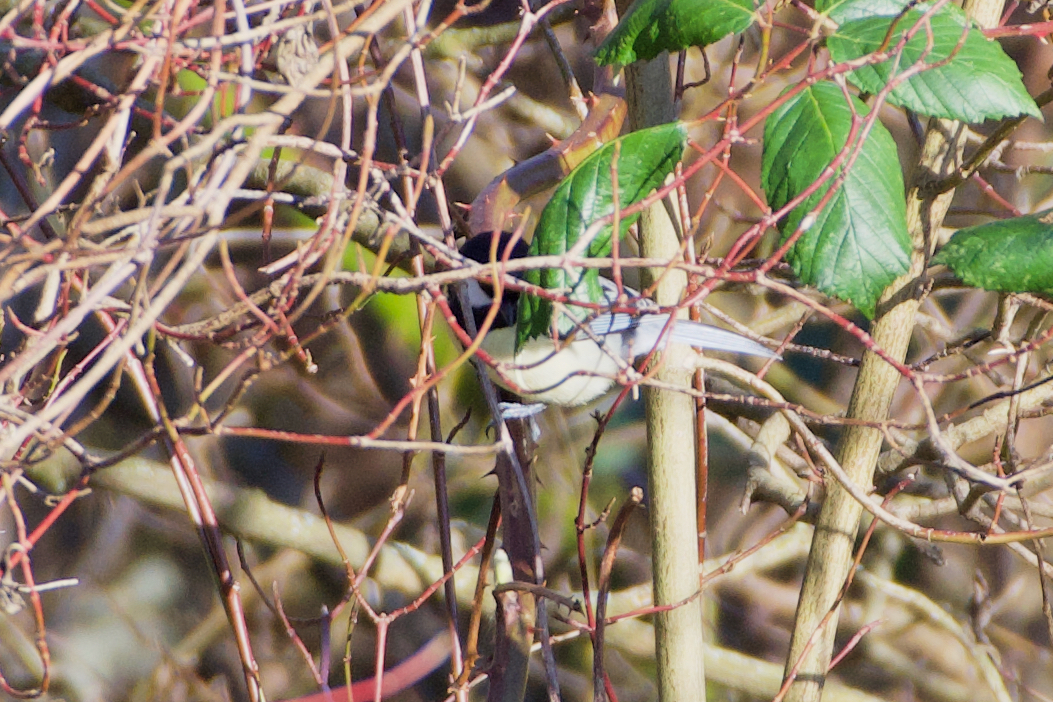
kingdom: Animalia
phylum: Chordata
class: Aves
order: Passeriformes
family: Paridae
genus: Parus
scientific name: Parus major
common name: Great tit
